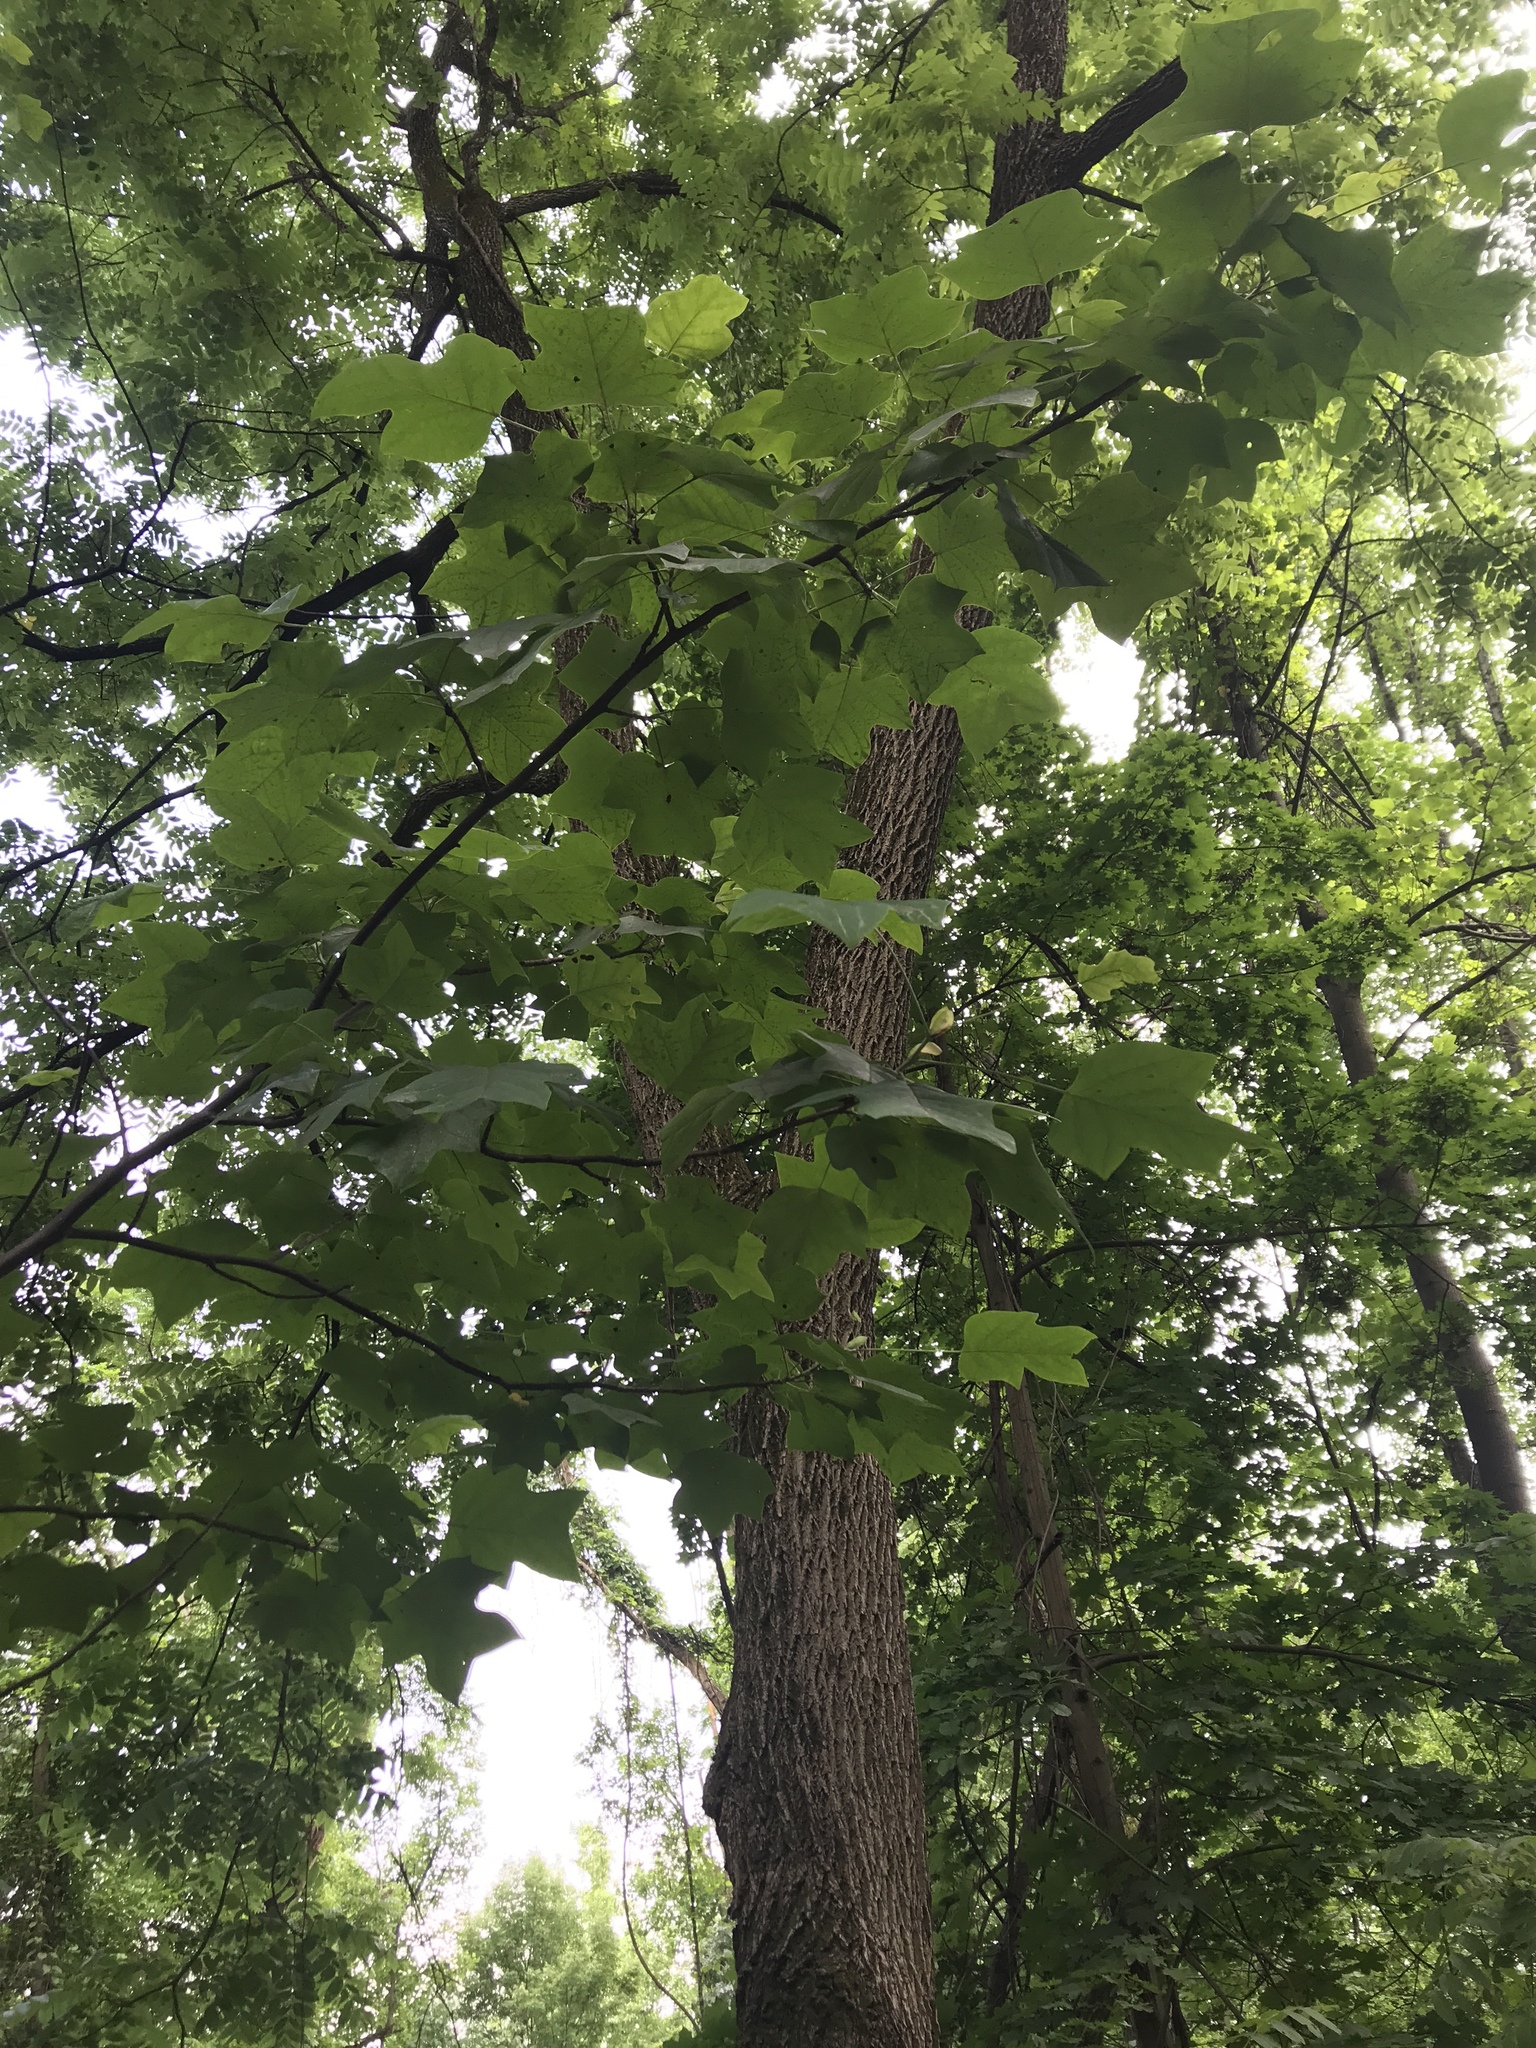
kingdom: Plantae
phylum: Tracheophyta
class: Magnoliopsida
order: Magnoliales
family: Magnoliaceae
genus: Liriodendron
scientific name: Liriodendron tulipifera
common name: Tulip tree
